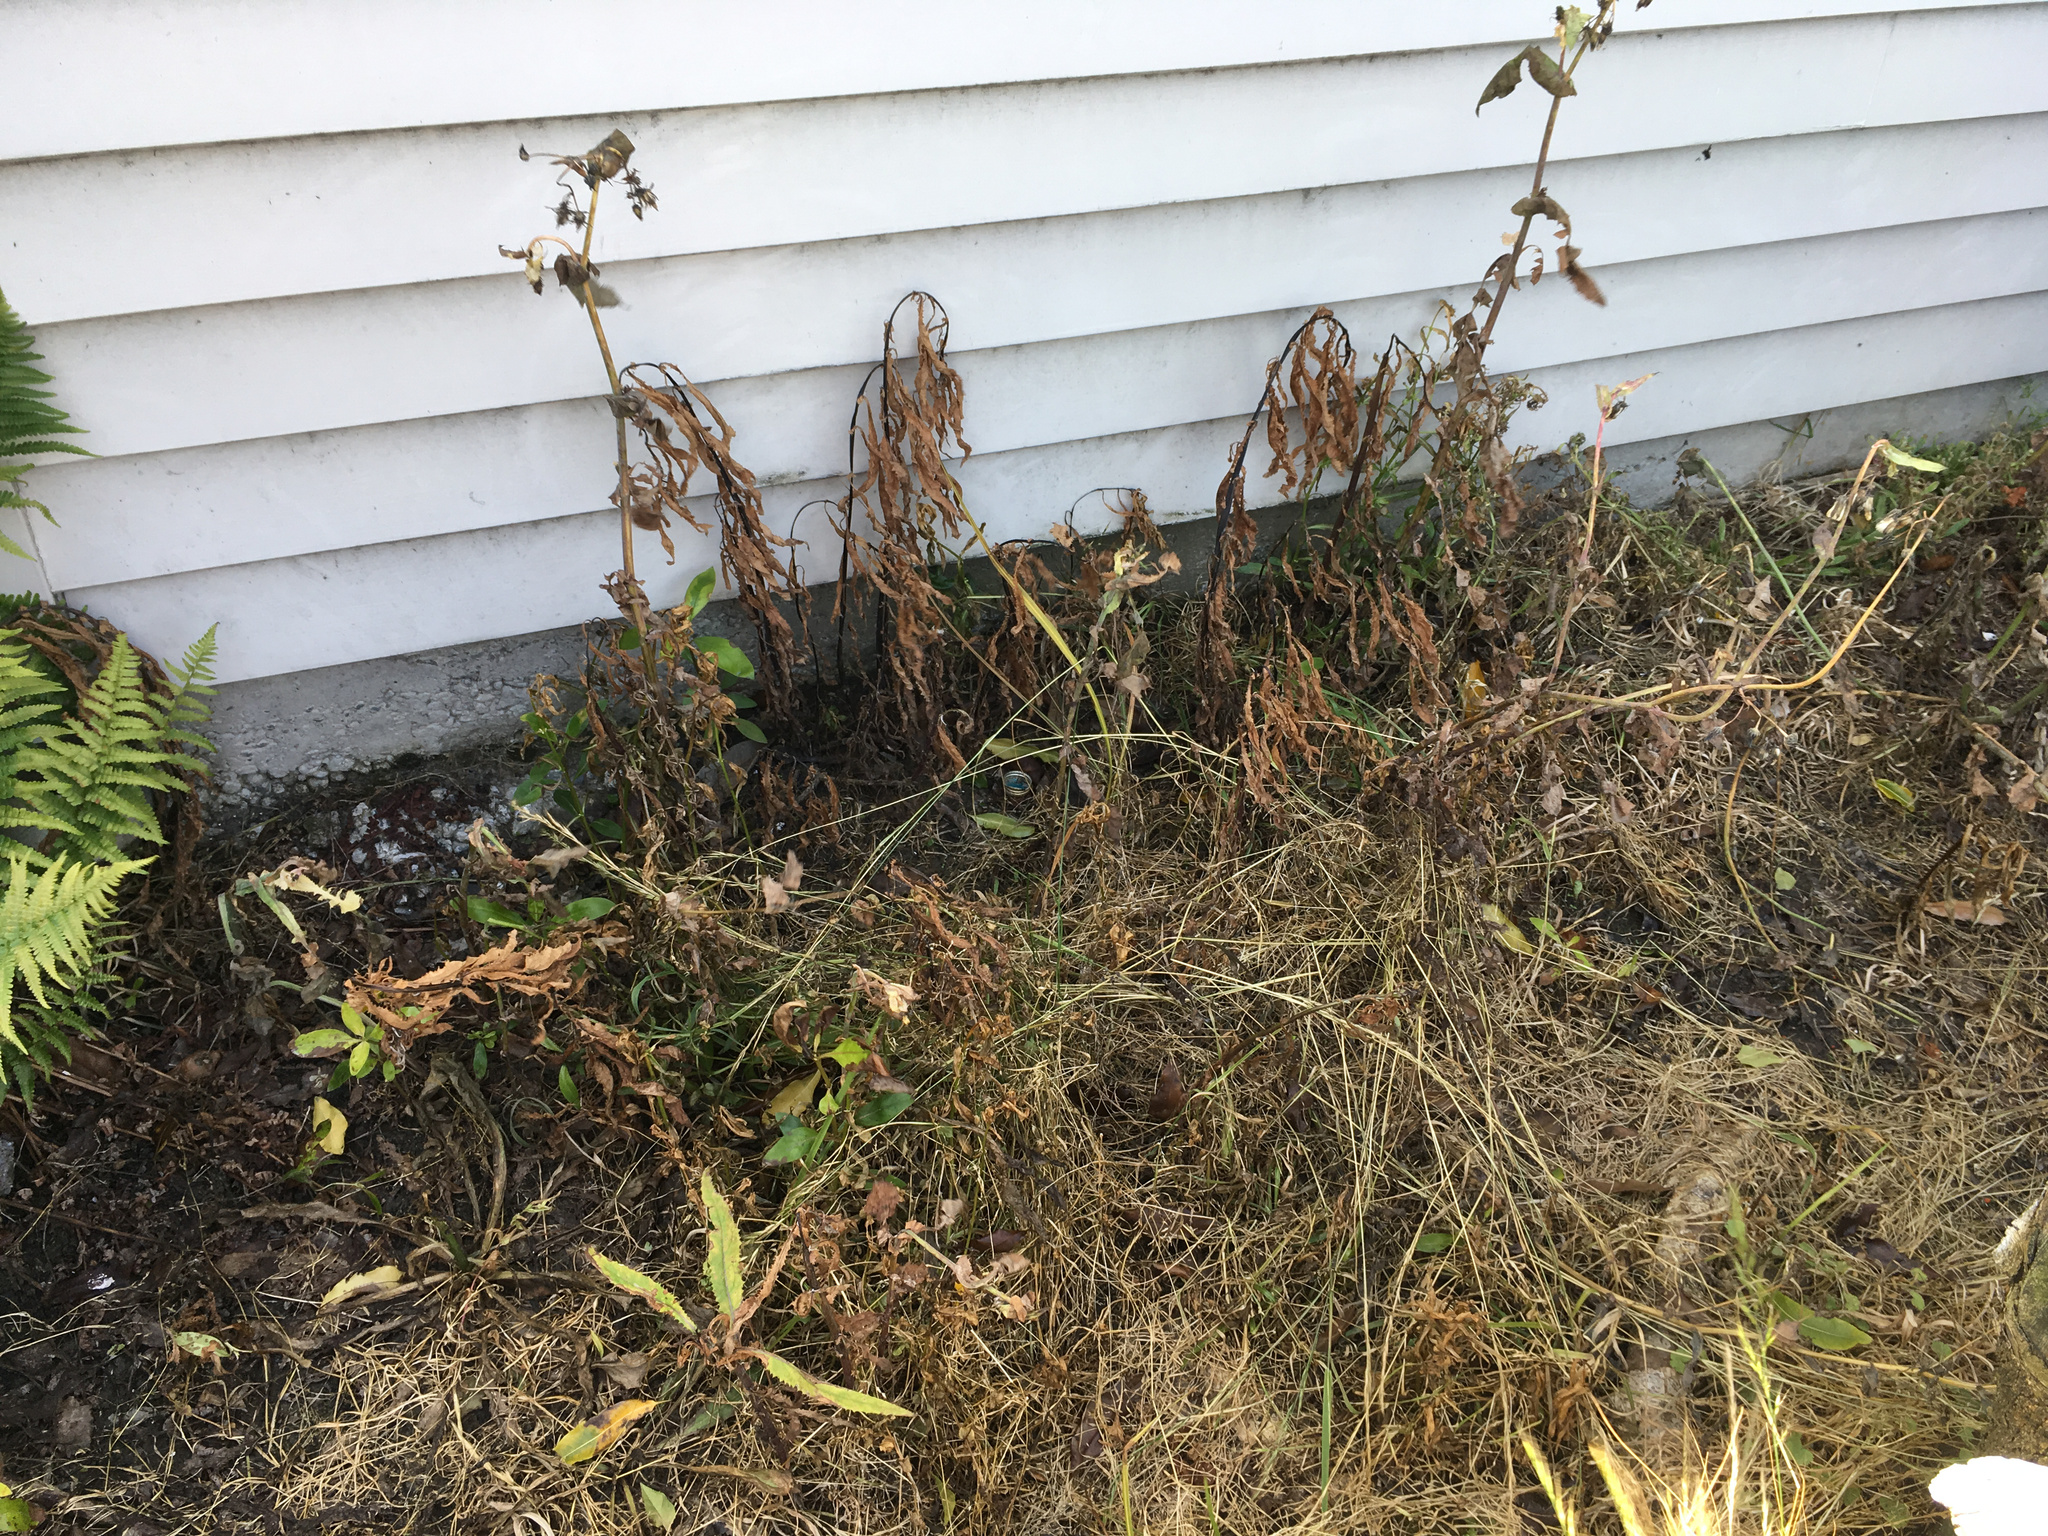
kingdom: Plantae
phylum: Tracheophyta
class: Magnoliopsida
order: Asterales
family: Asteraceae
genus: Senecio
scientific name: Senecio minimus
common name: Toothed fireweed
